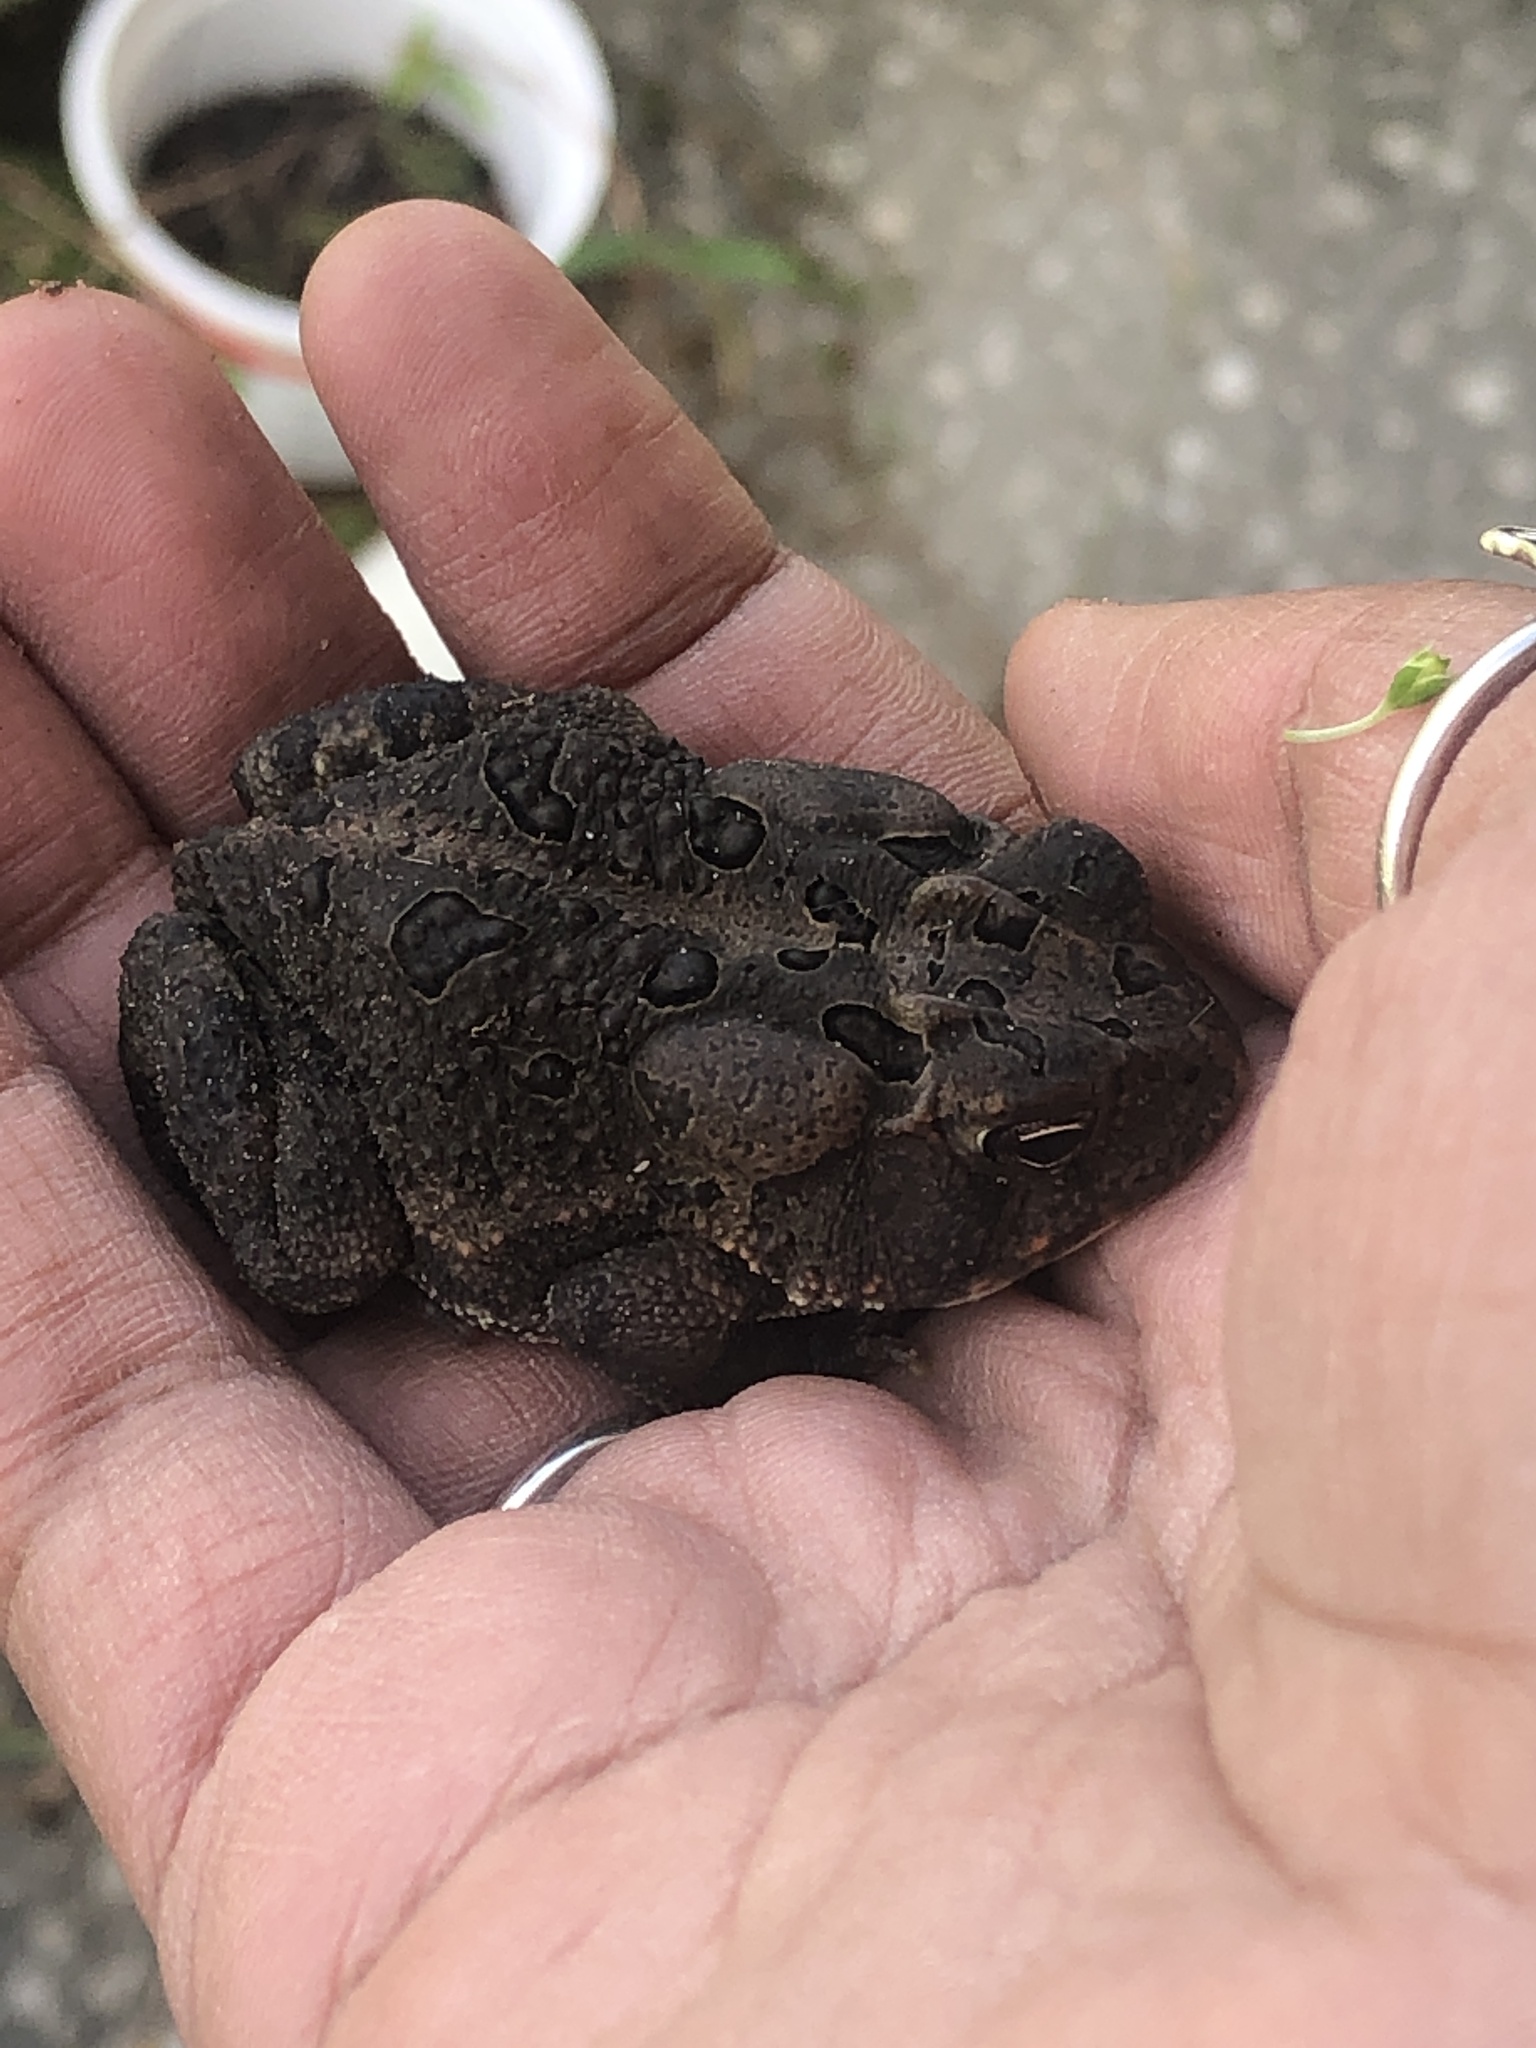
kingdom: Animalia
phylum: Chordata
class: Amphibia
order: Anura
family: Bufonidae
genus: Anaxyrus
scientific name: Anaxyrus terrestris
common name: Southern toad
